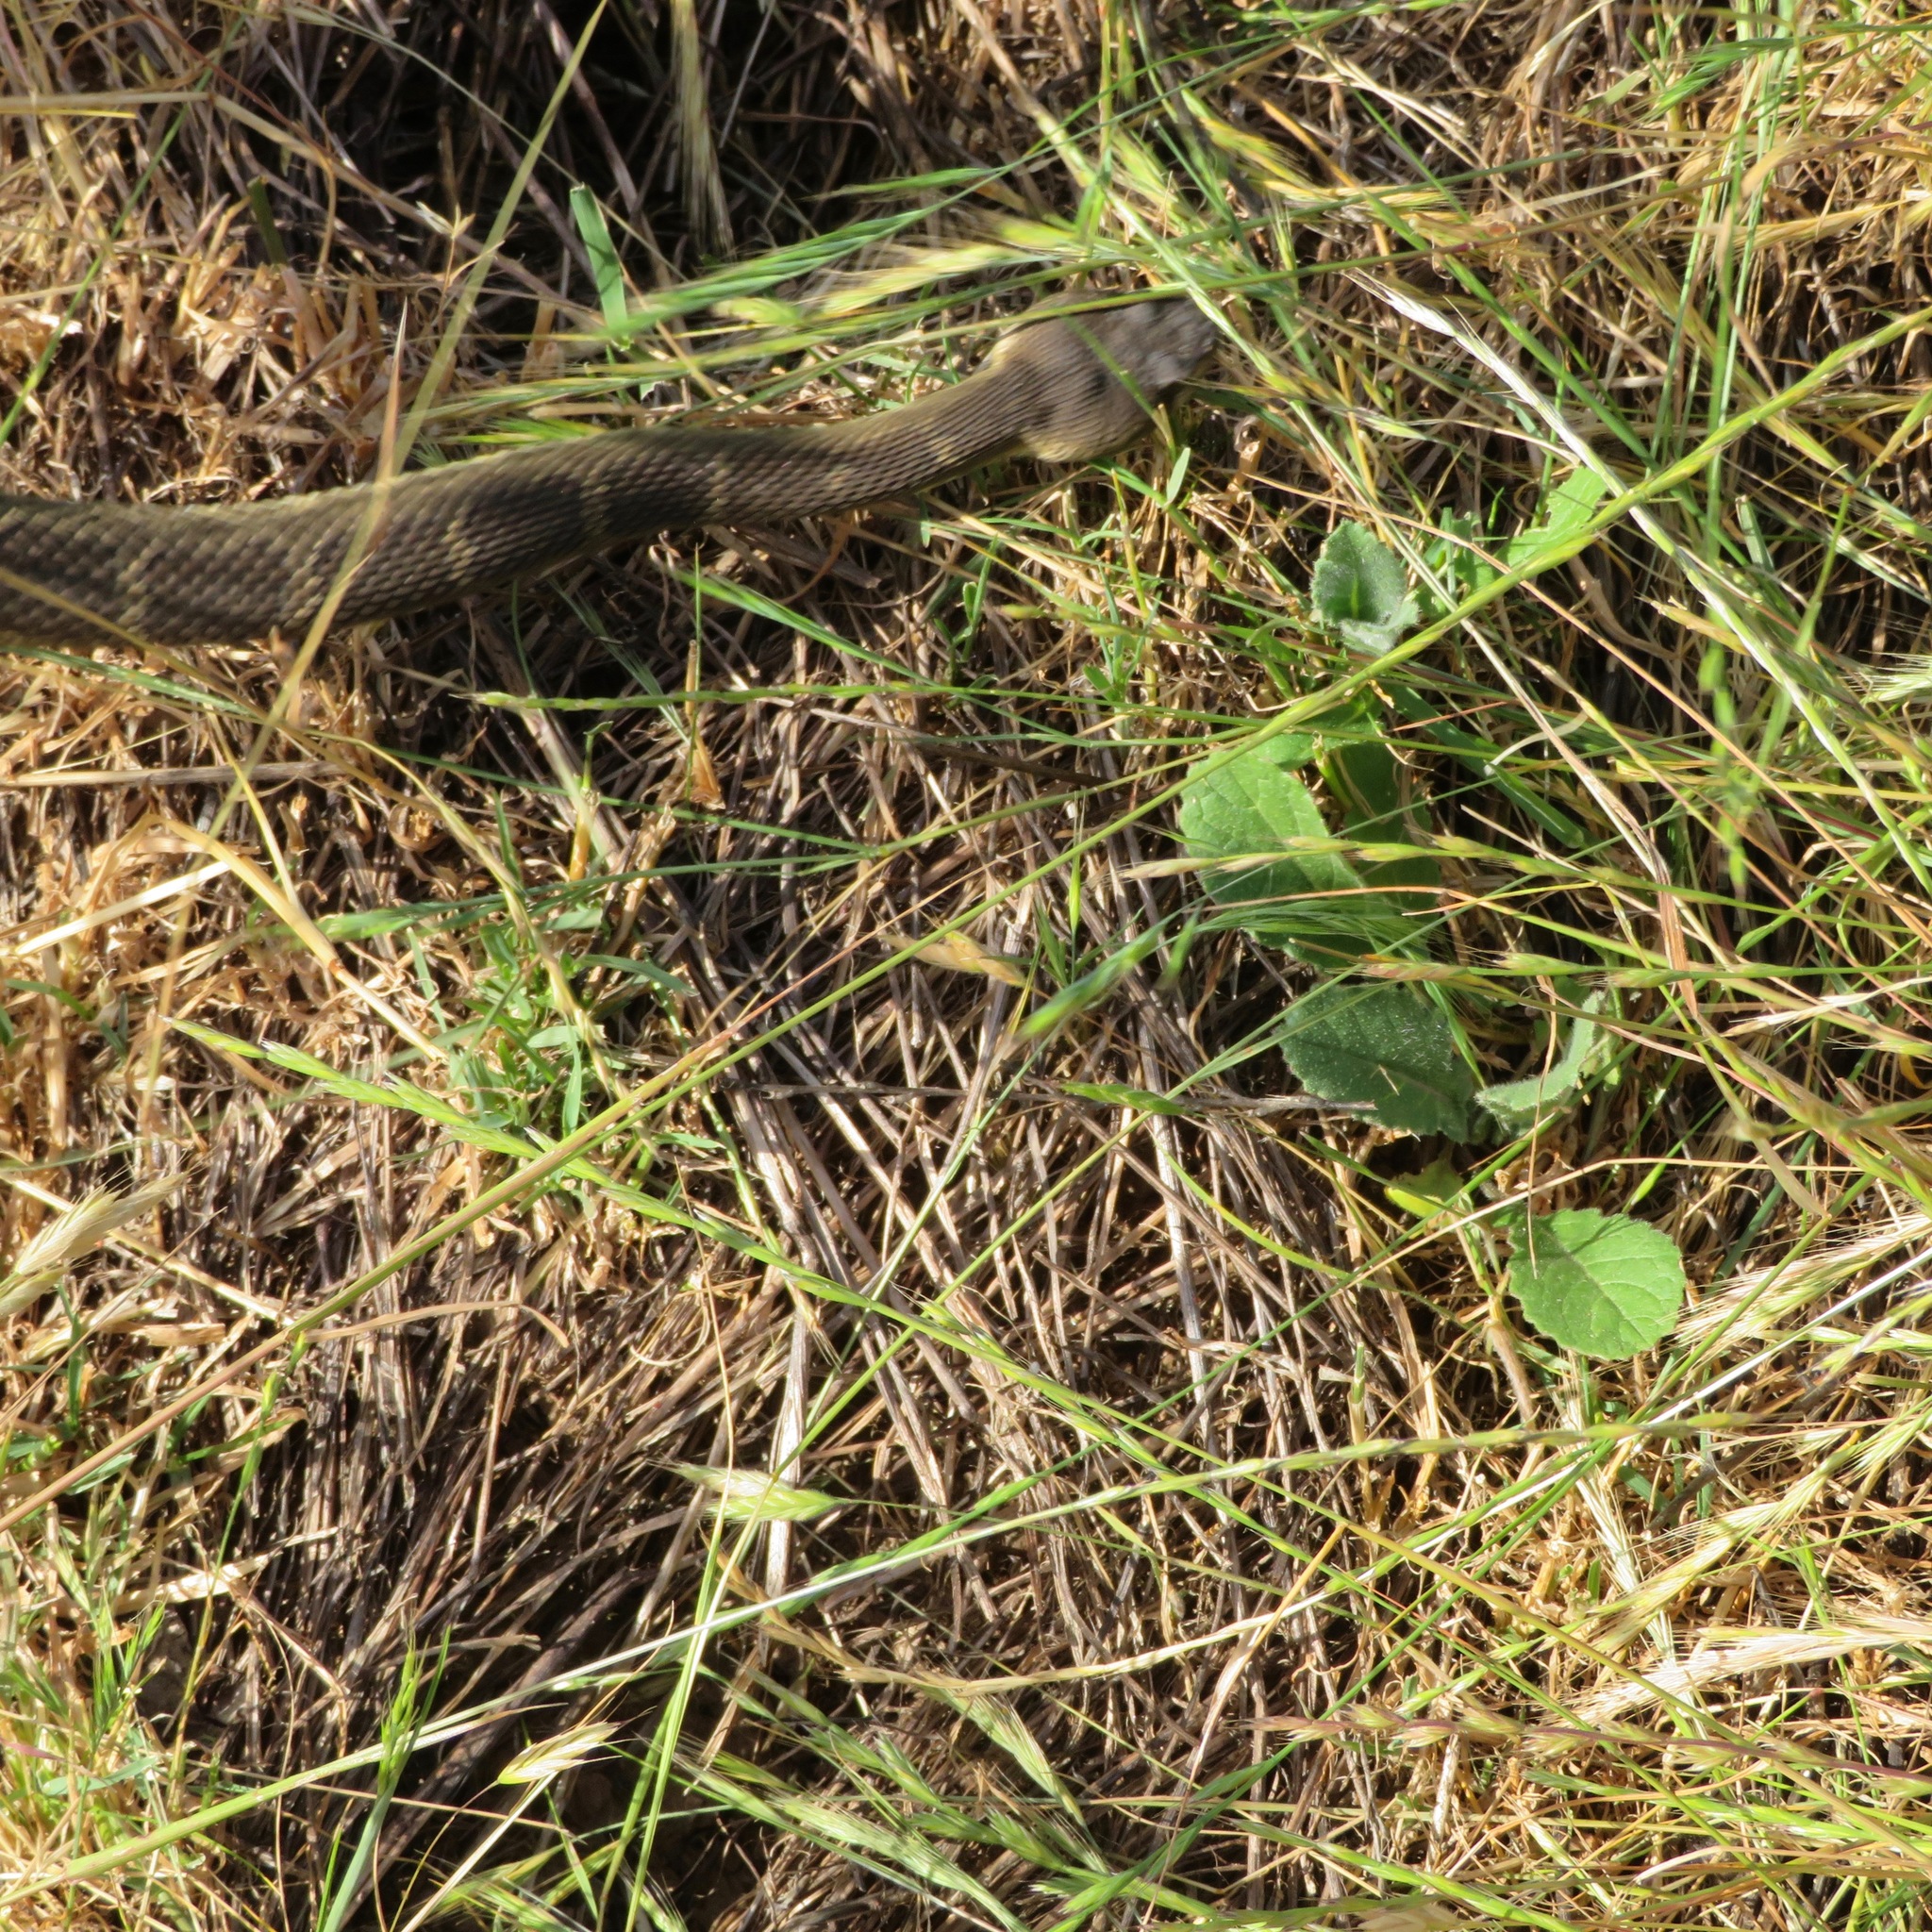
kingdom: Animalia
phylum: Chordata
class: Squamata
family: Viperidae
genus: Crotalus
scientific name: Crotalus oreganus
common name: Abyssus
